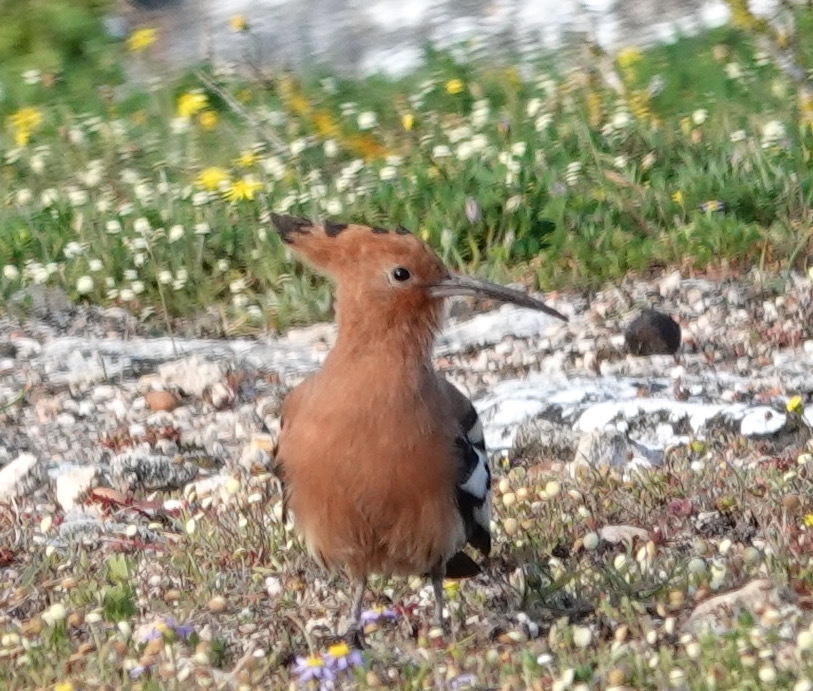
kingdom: Animalia
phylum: Chordata
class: Aves
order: Bucerotiformes
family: Upupidae
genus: Upupa
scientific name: Upupa africana
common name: African hoopoe
